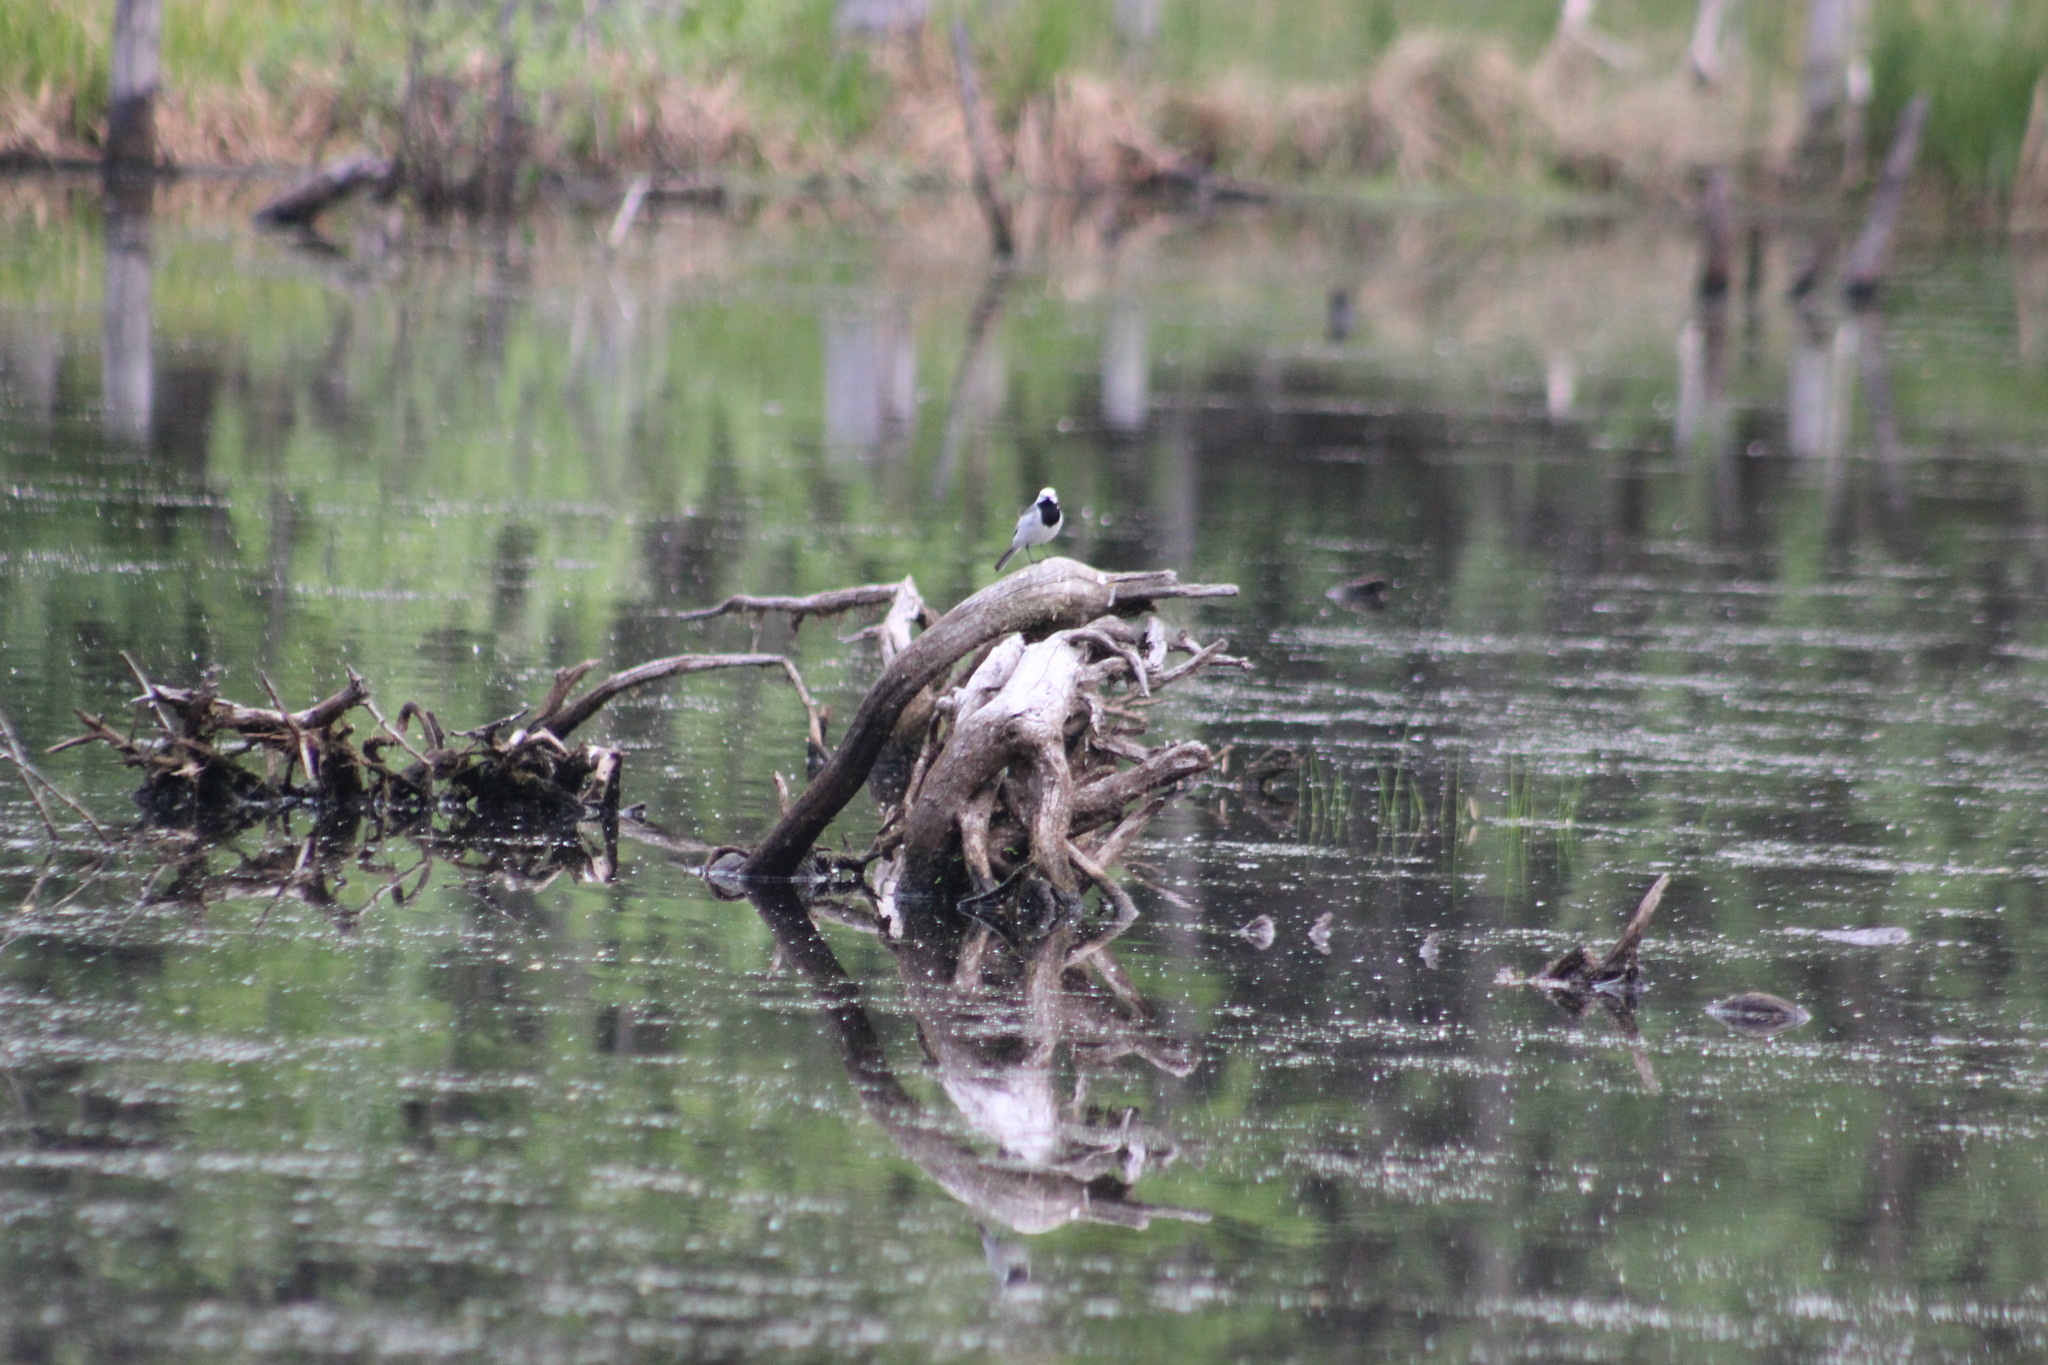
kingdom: Animalia
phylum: Chordata
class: Aves
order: Passeriformes
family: Motacillidae
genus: Motacilla
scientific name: Motacilla alba
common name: White wagtail
